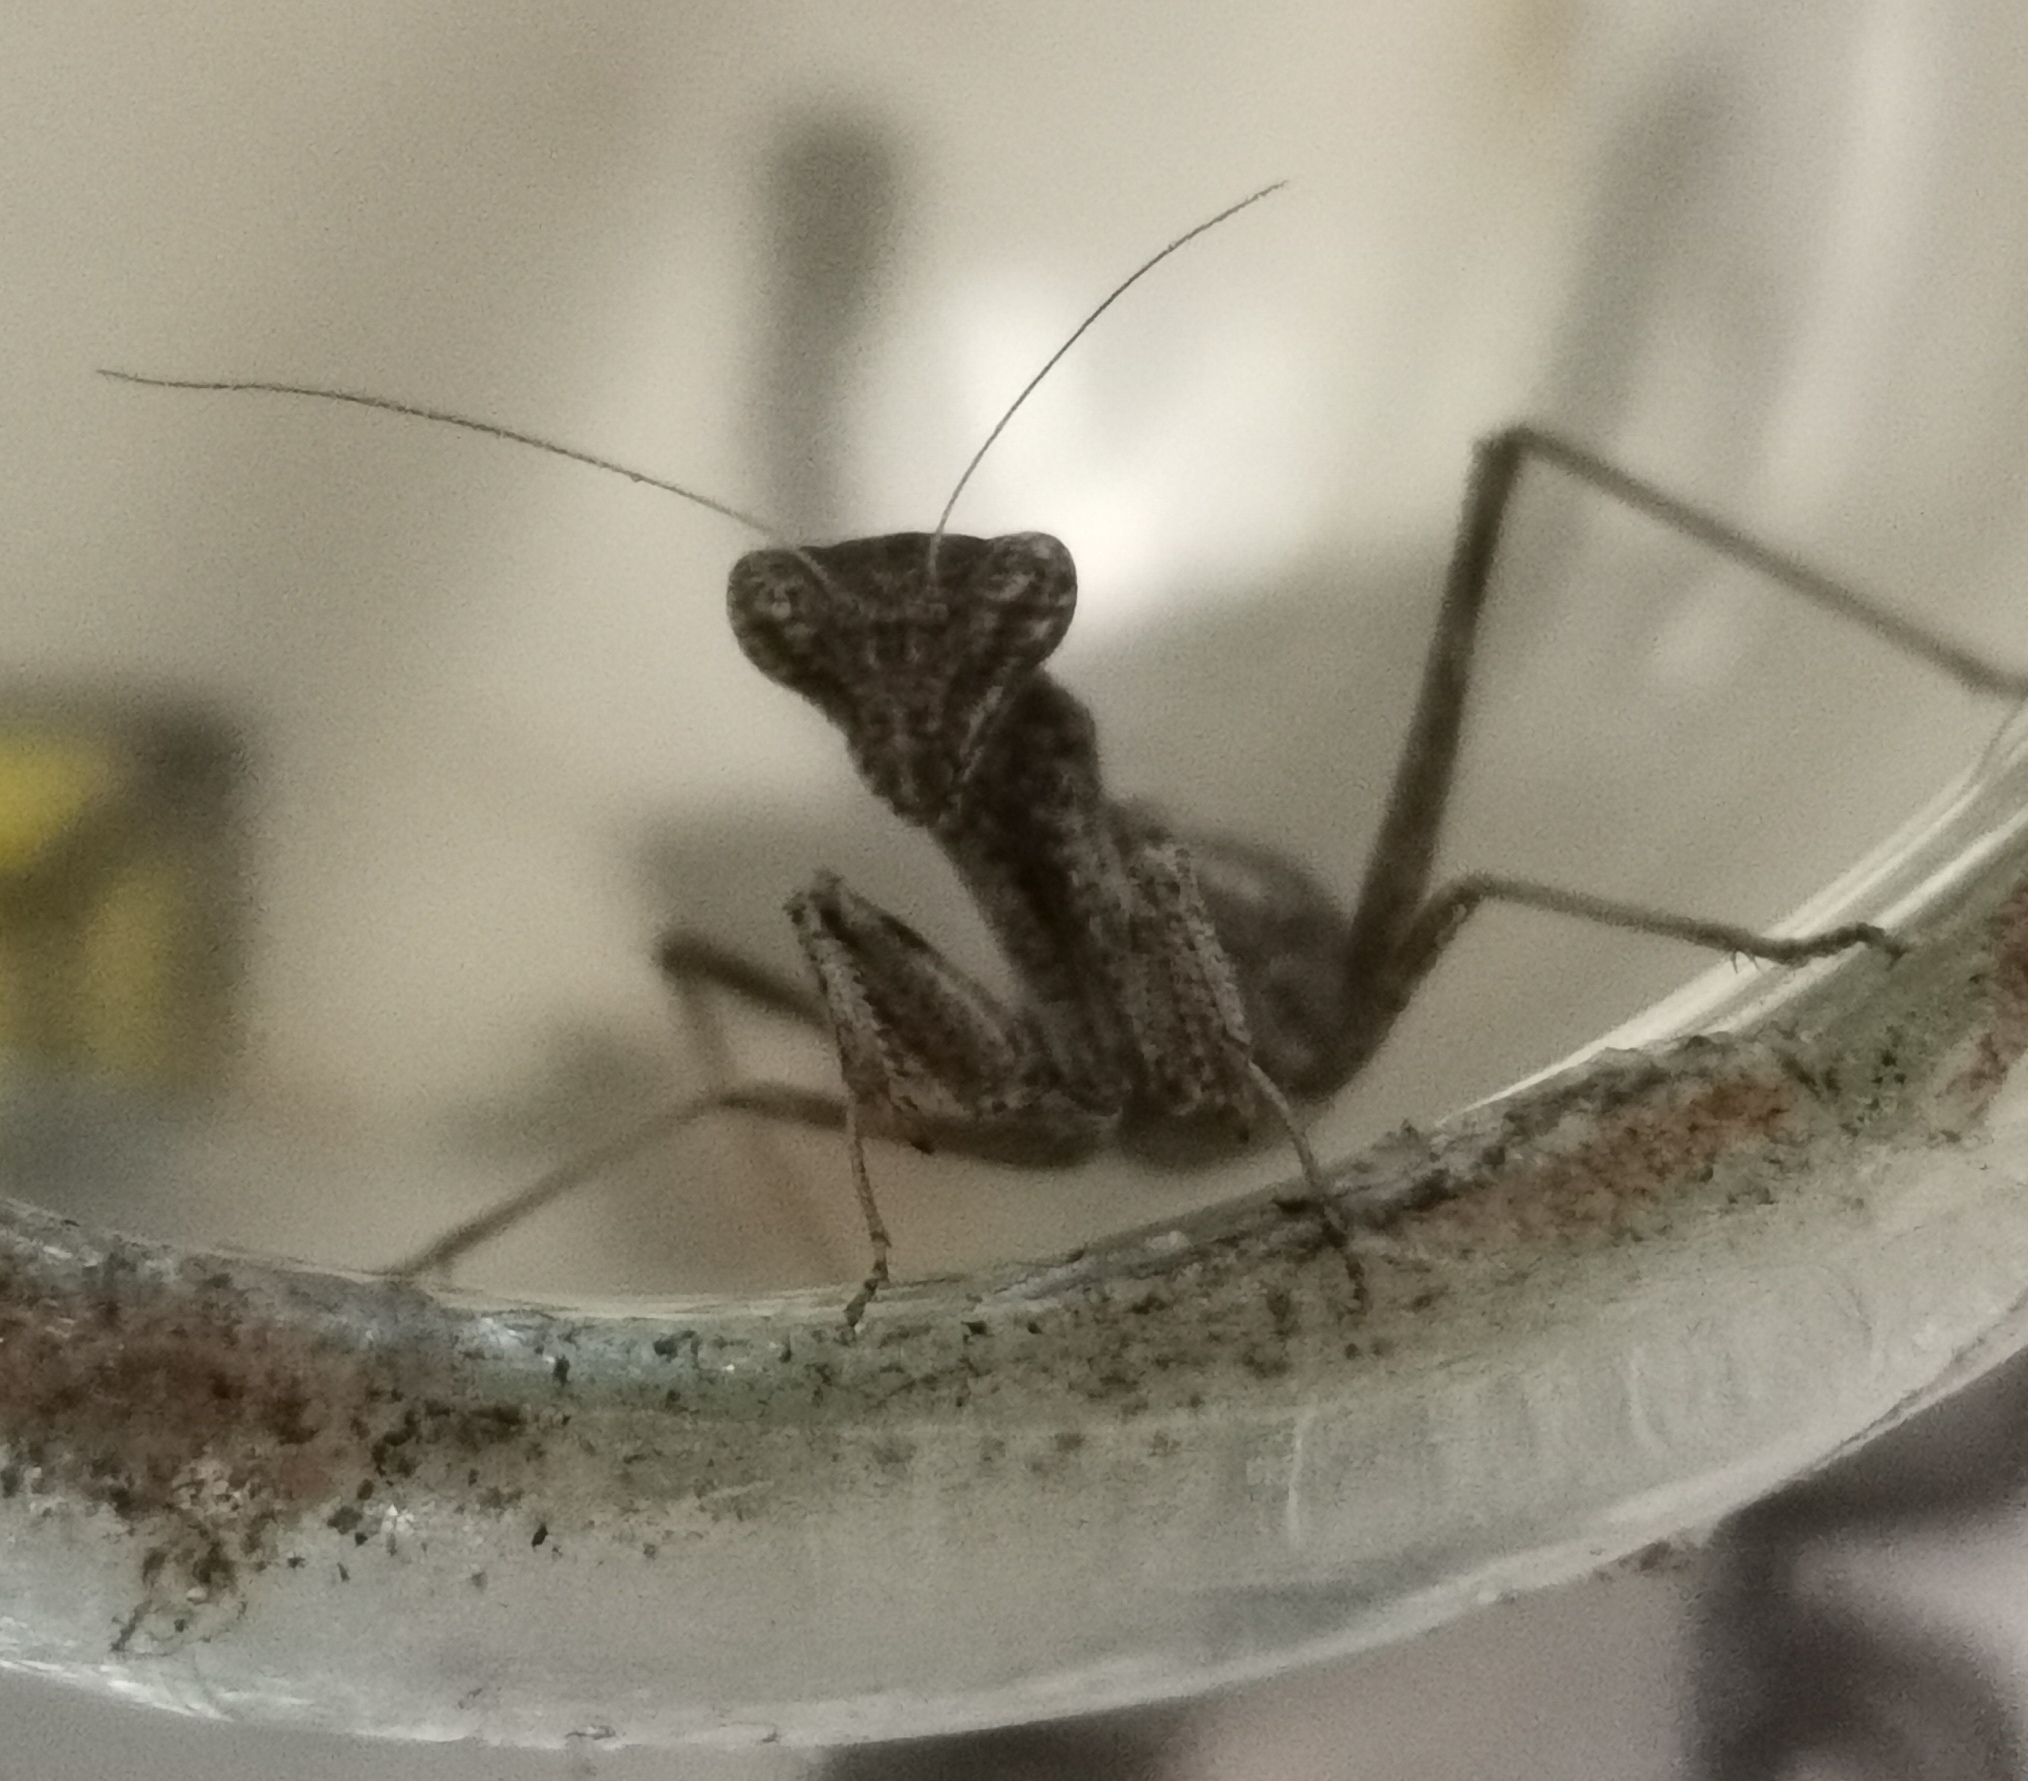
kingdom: Animalia
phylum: Arthropoda
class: Insecta
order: Mantodea
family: Amelidae
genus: Ameles
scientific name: Ameles decolor
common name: Dwarf mantis
